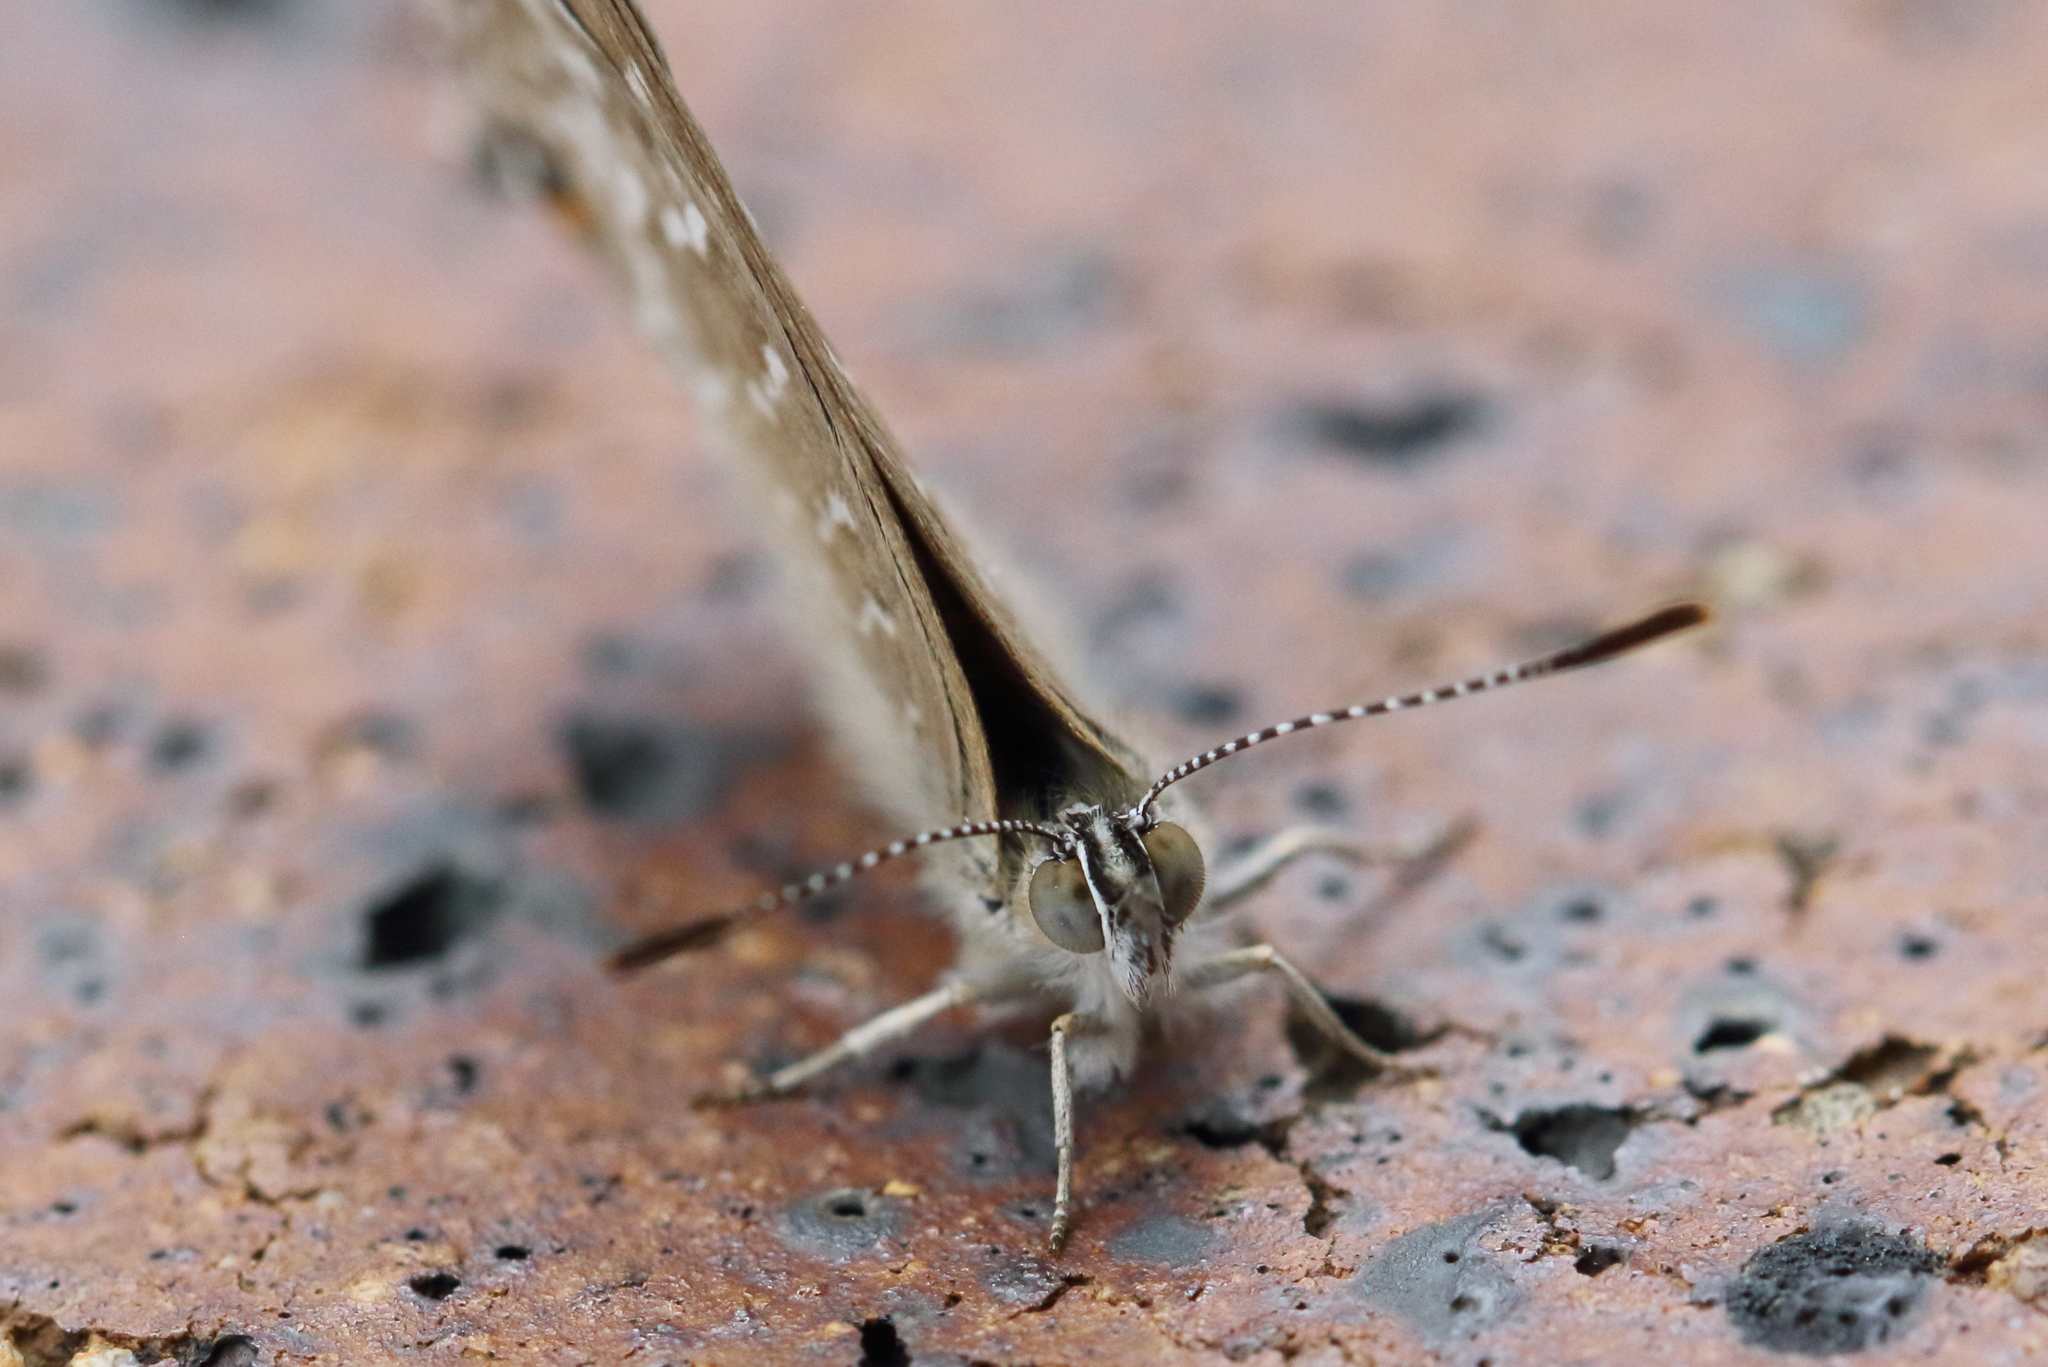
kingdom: Animalia
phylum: Arthropoda
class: Insecta
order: Lepidoptera
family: Lycaenidae
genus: Theclinesthes
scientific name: Theclinesthes miskini
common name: Wattle blue
